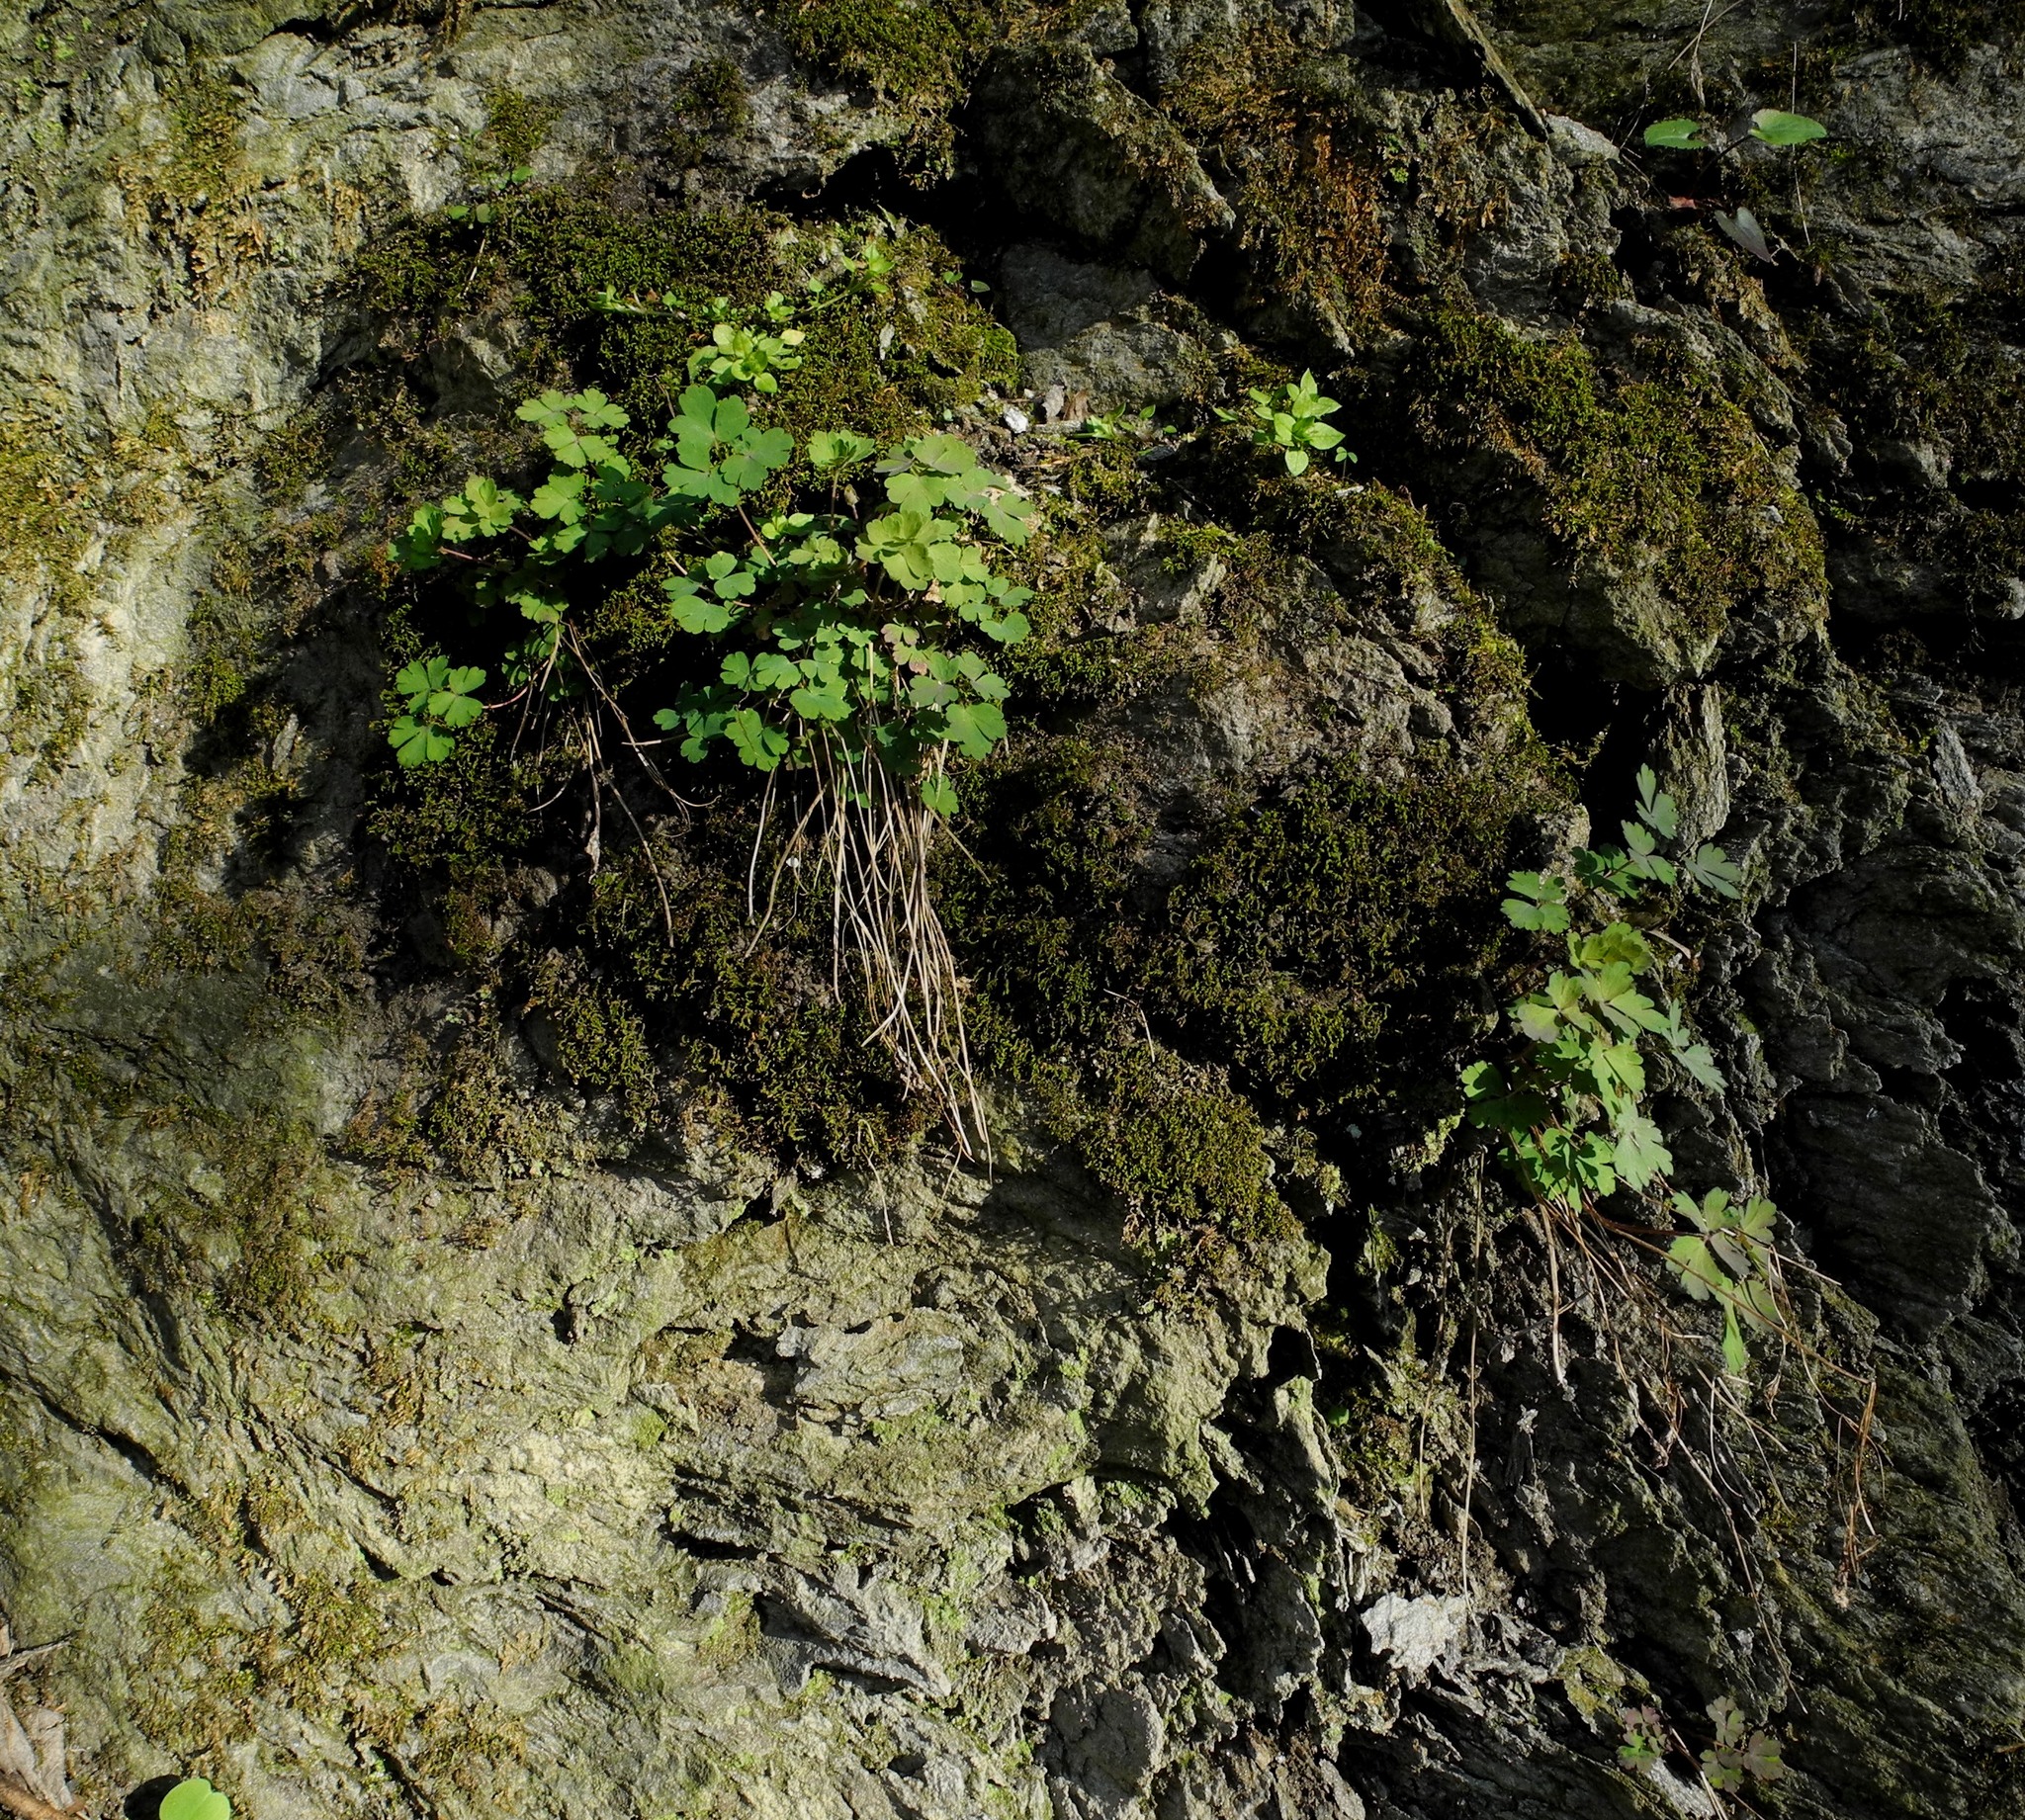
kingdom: Plantae
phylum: Tracheophyta
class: Magnoliopsida
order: Ranunculales
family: Ranunculaceae
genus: Aquilegia
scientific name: Aquilegia canadensis
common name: American columbine
